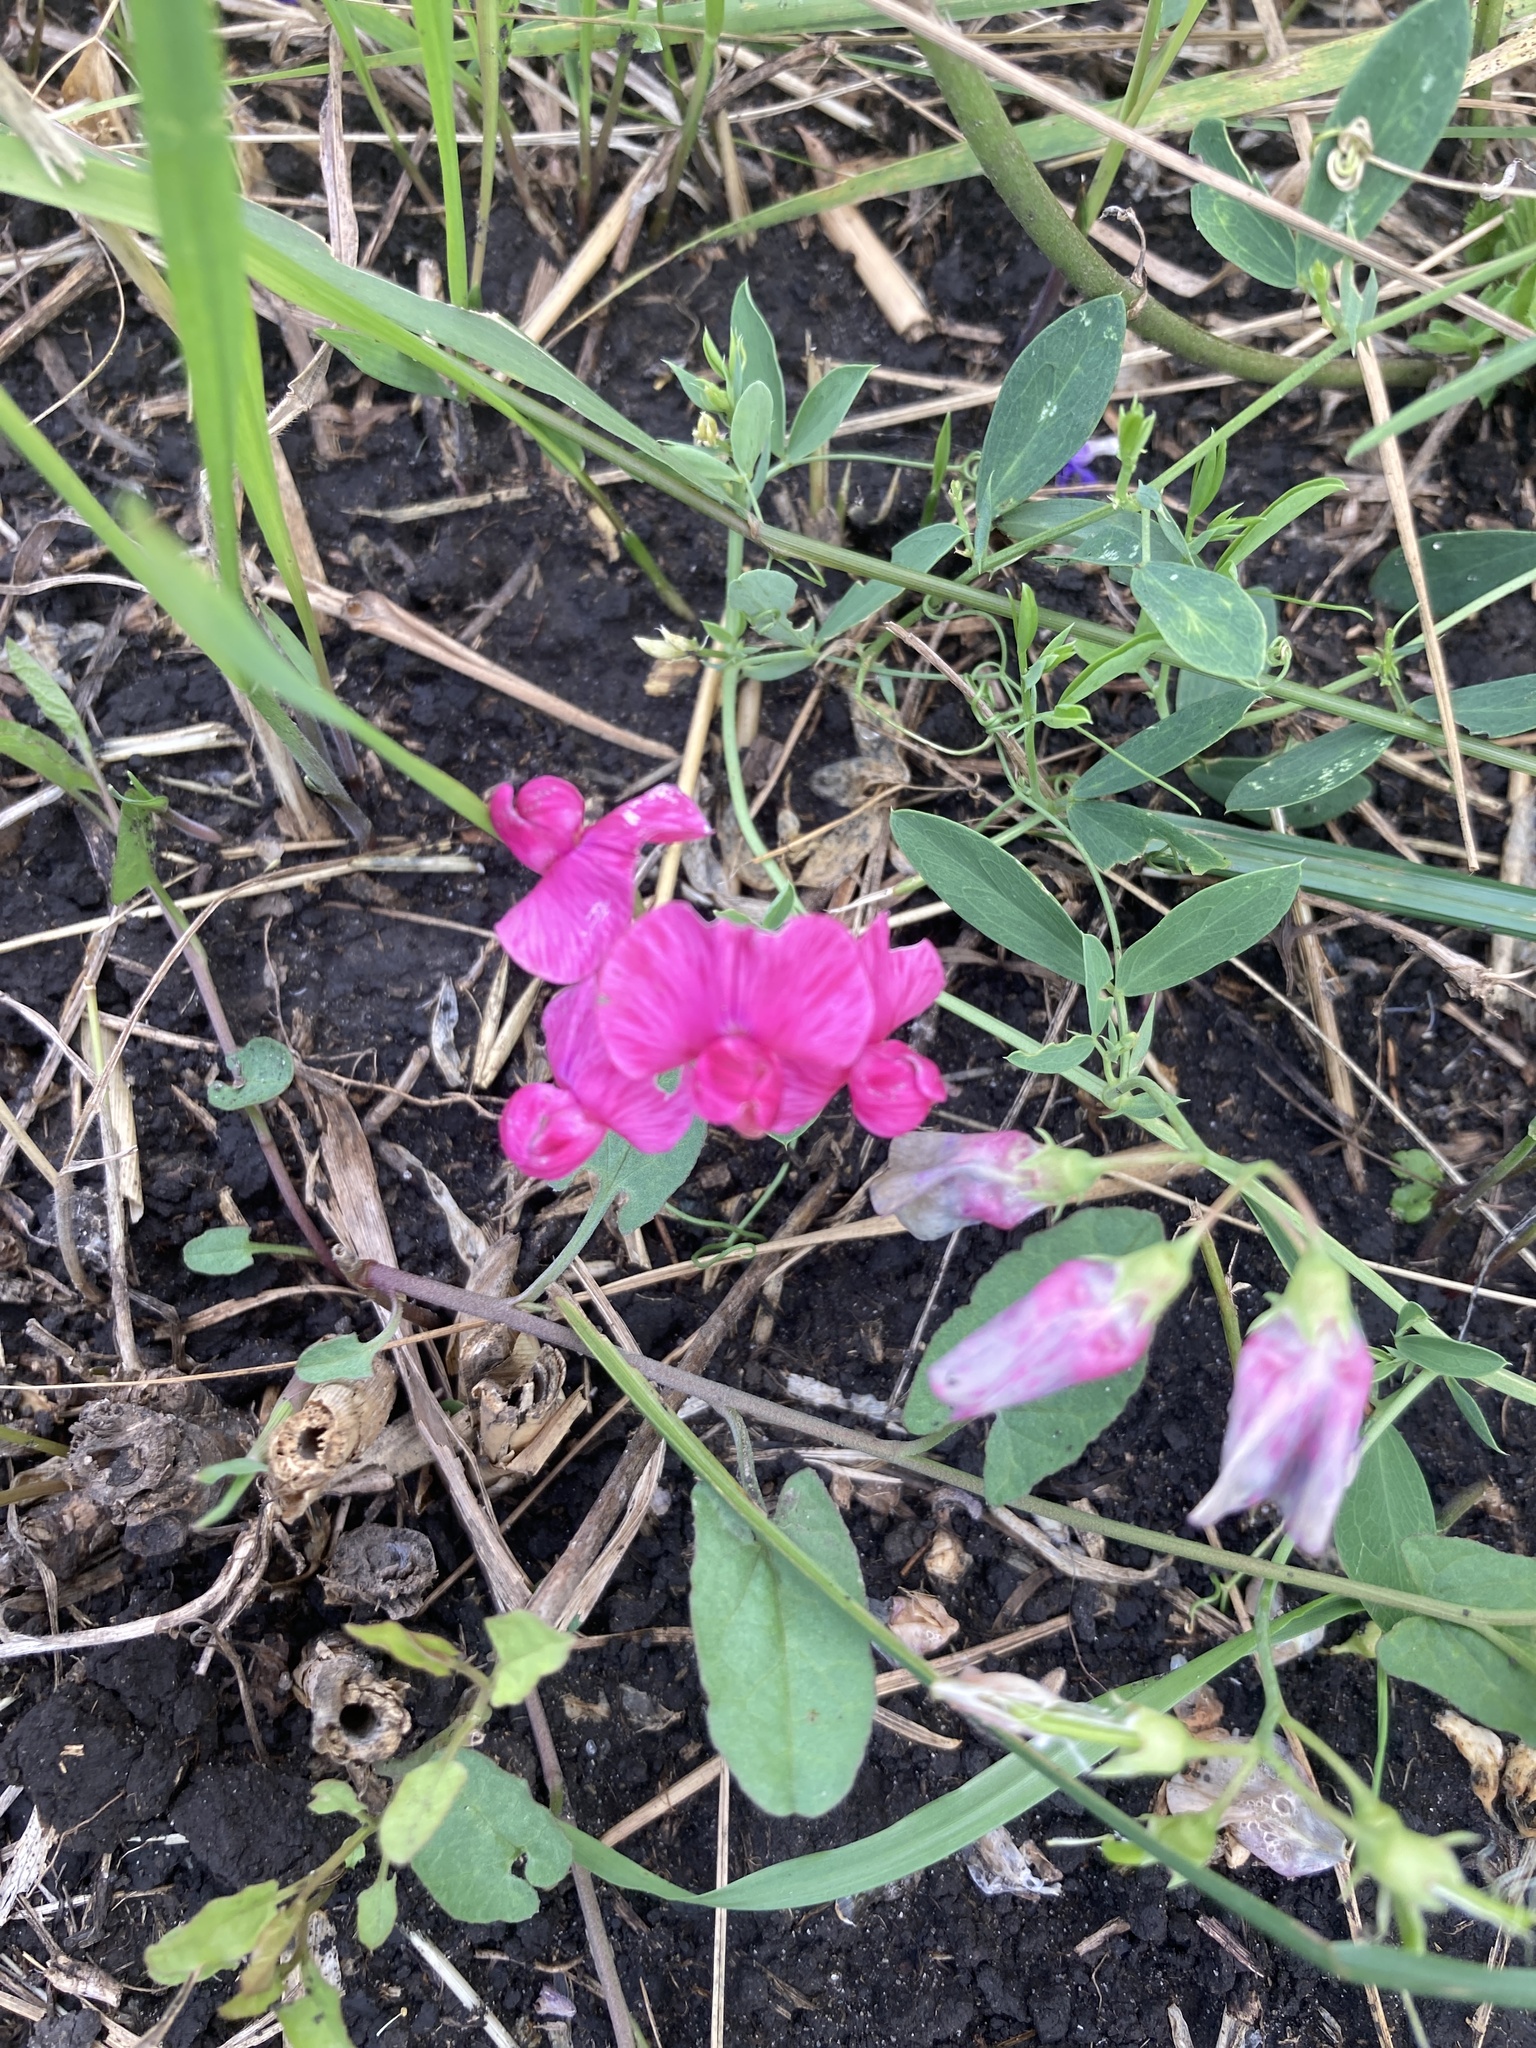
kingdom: Plantae
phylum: Tracheophyta
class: Magnoliopsida
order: Fabales
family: Fabaceae
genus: Lathyrus
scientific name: Lathyrus tuberosus
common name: Tuberous pea
